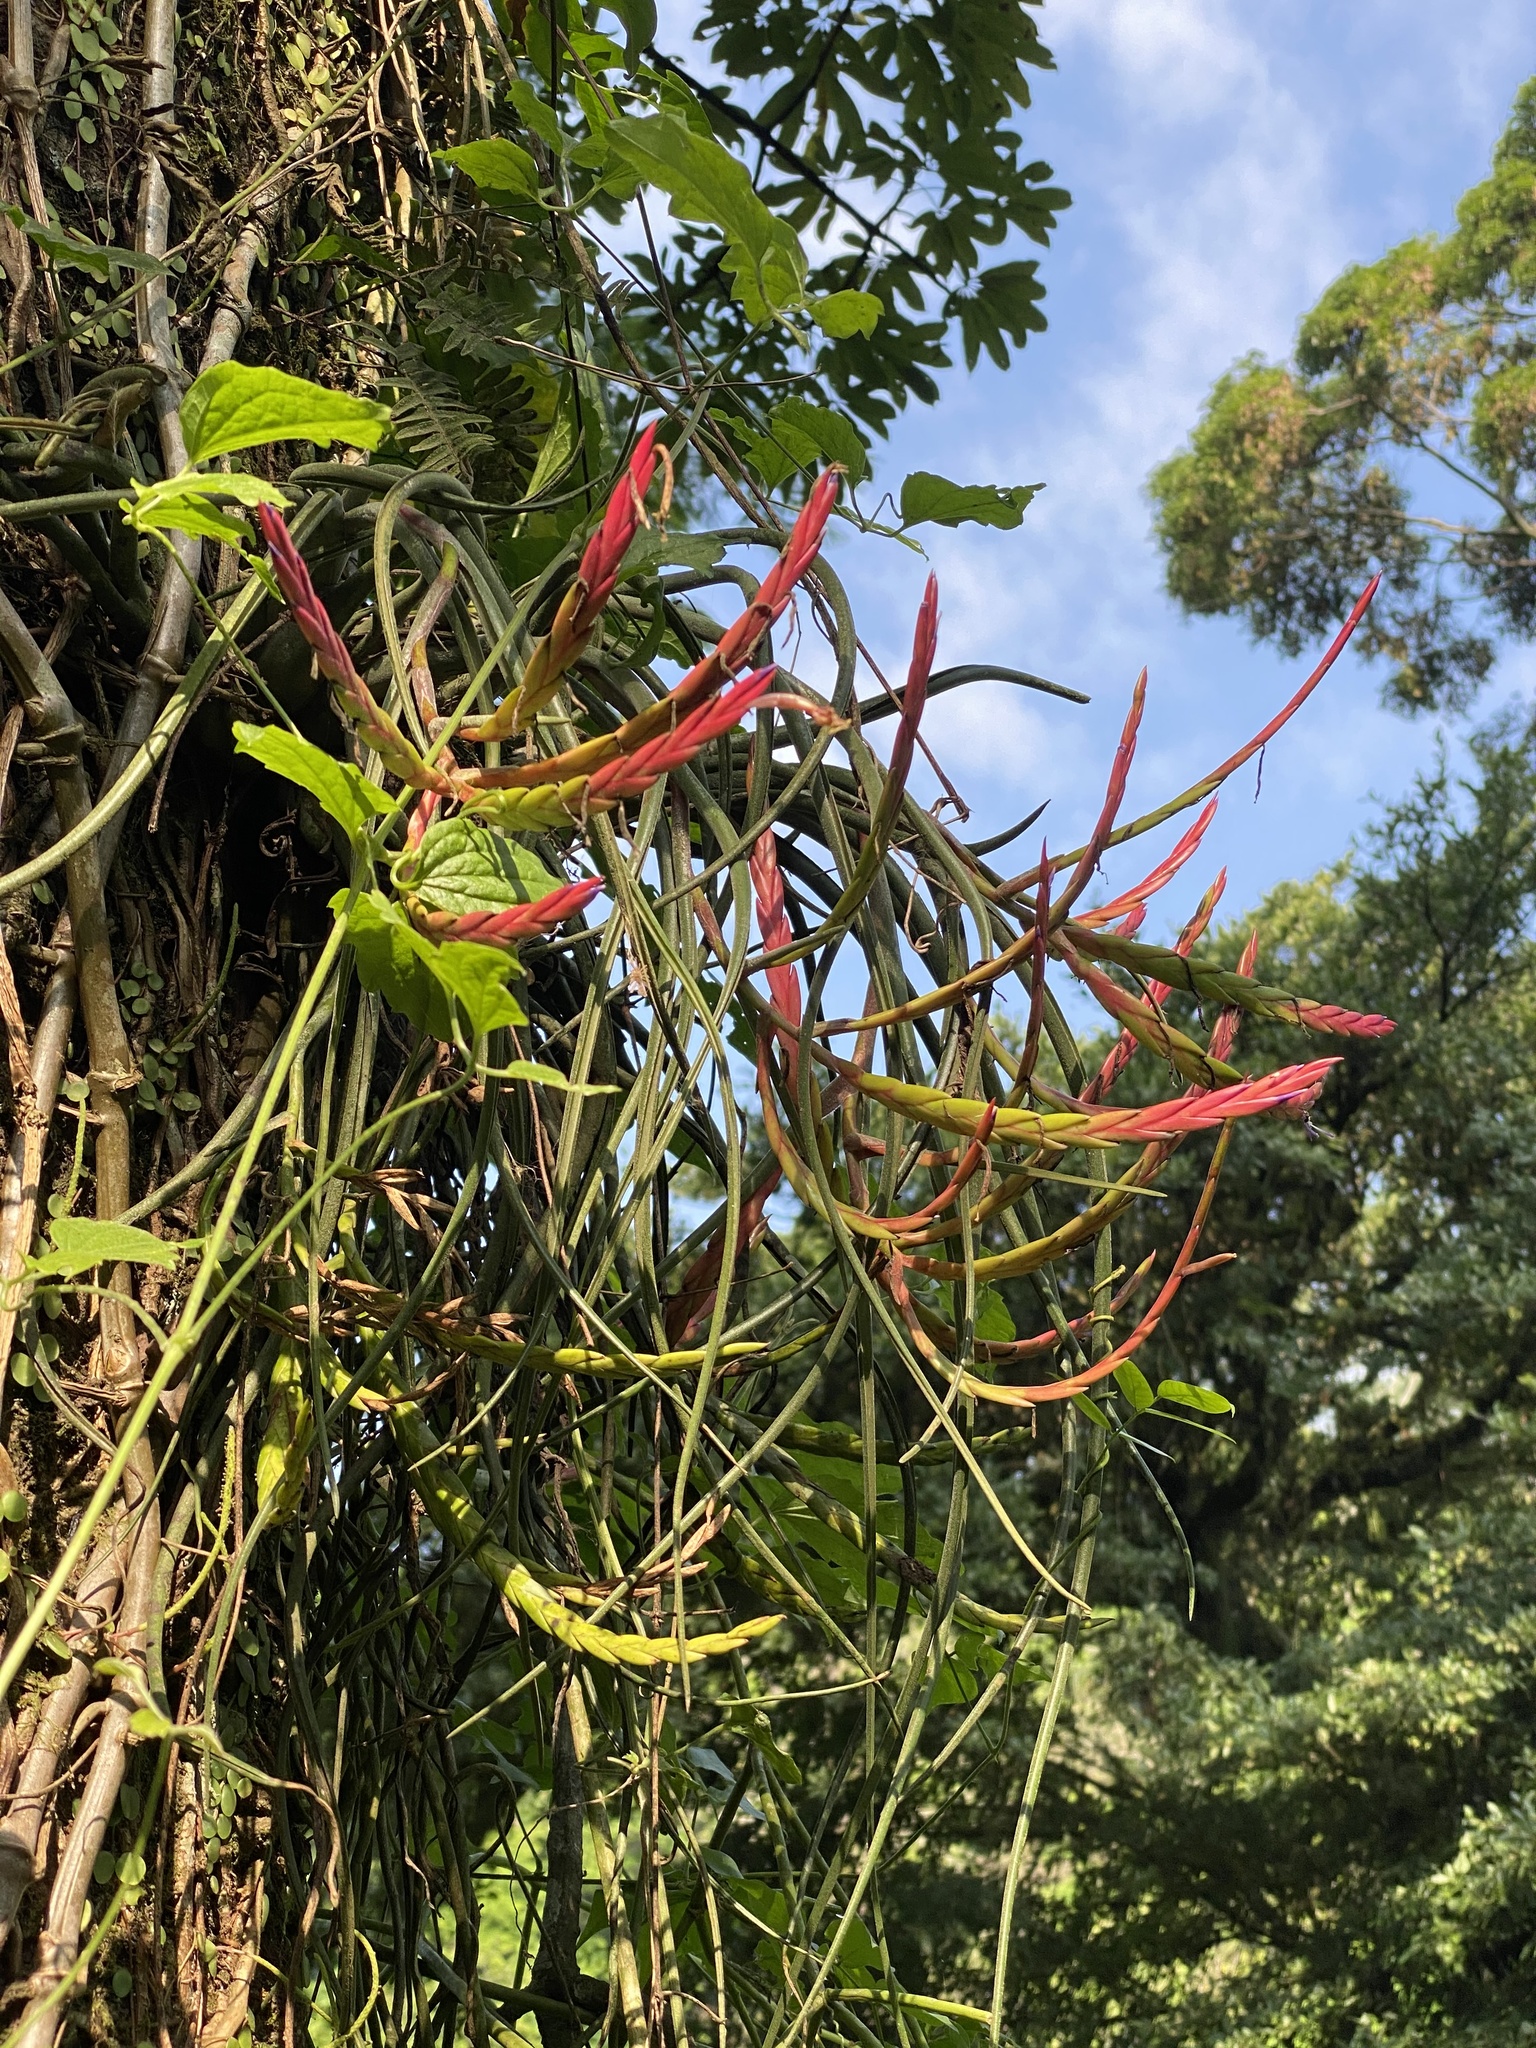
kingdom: Plantae
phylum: Tracheophyta
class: Liliopsida
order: Poales
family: Bromeliaceae
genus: Tillandsia
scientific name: Tillandsia caput-medusae
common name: Octopus plant
